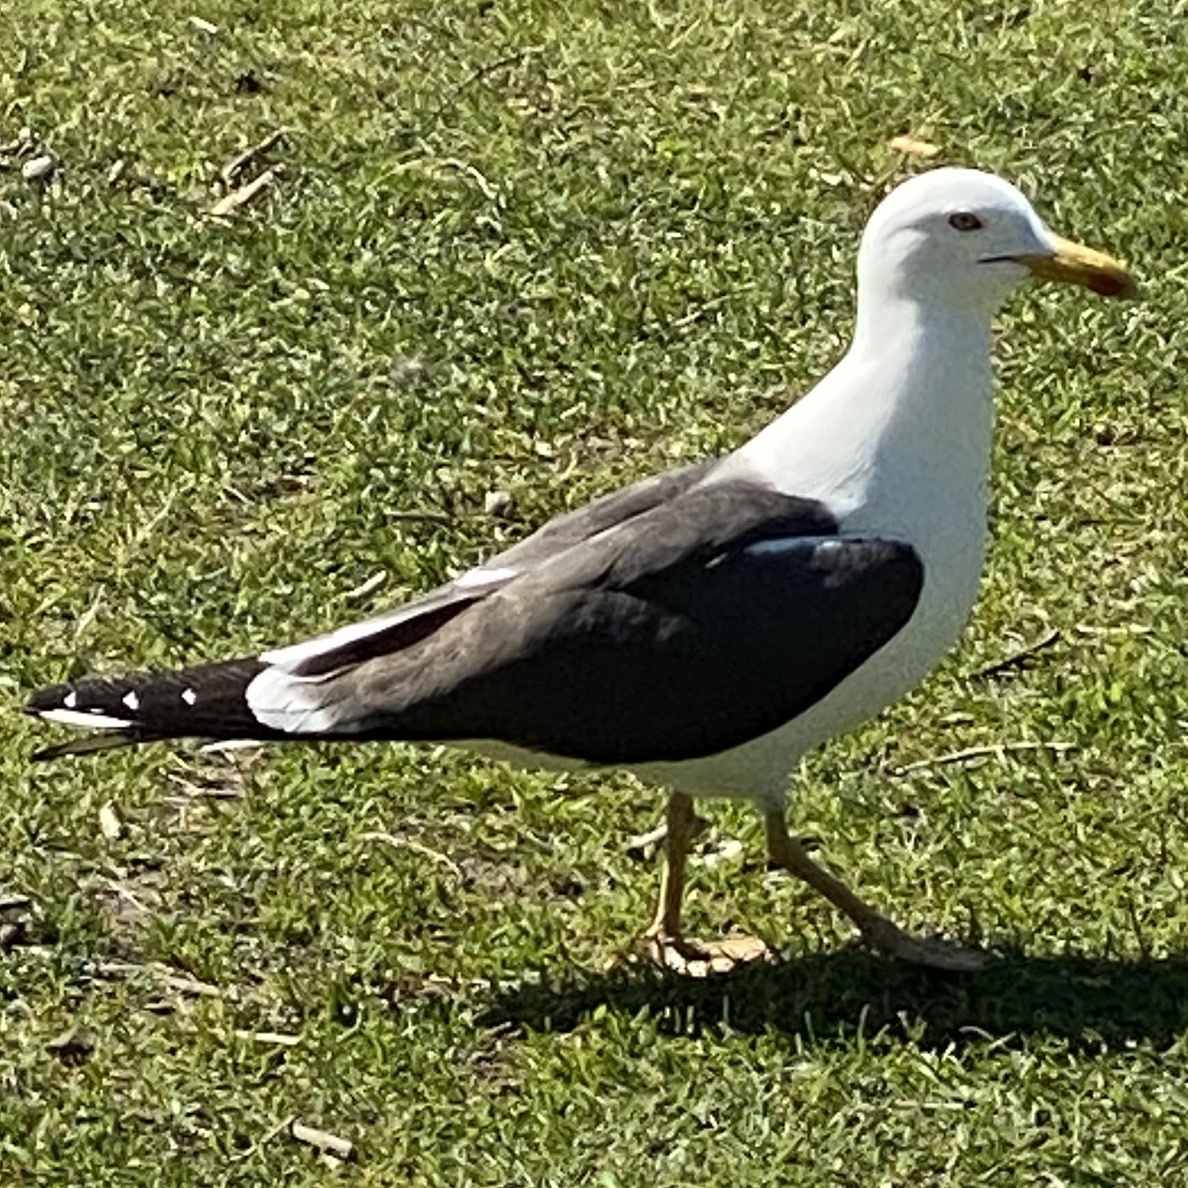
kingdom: Animalia
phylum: Chordata
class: Aves
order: Charadriiformes
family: Laridae
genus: Larus
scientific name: Larus fuscus
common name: Lesser black-backed gull
